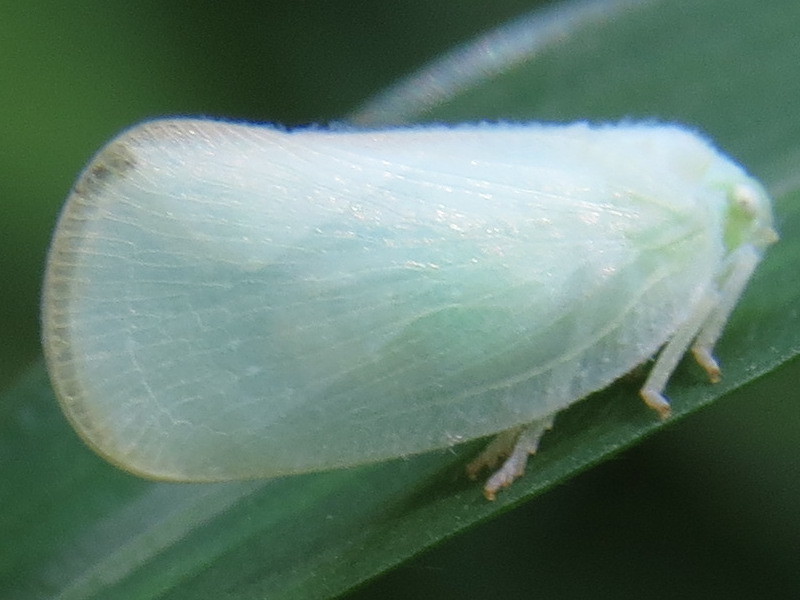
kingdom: Animalia
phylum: Arthropoda
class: Insecta
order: Hemiptera
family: Flatidae
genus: Ormenoides
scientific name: Ormenoides venusta
